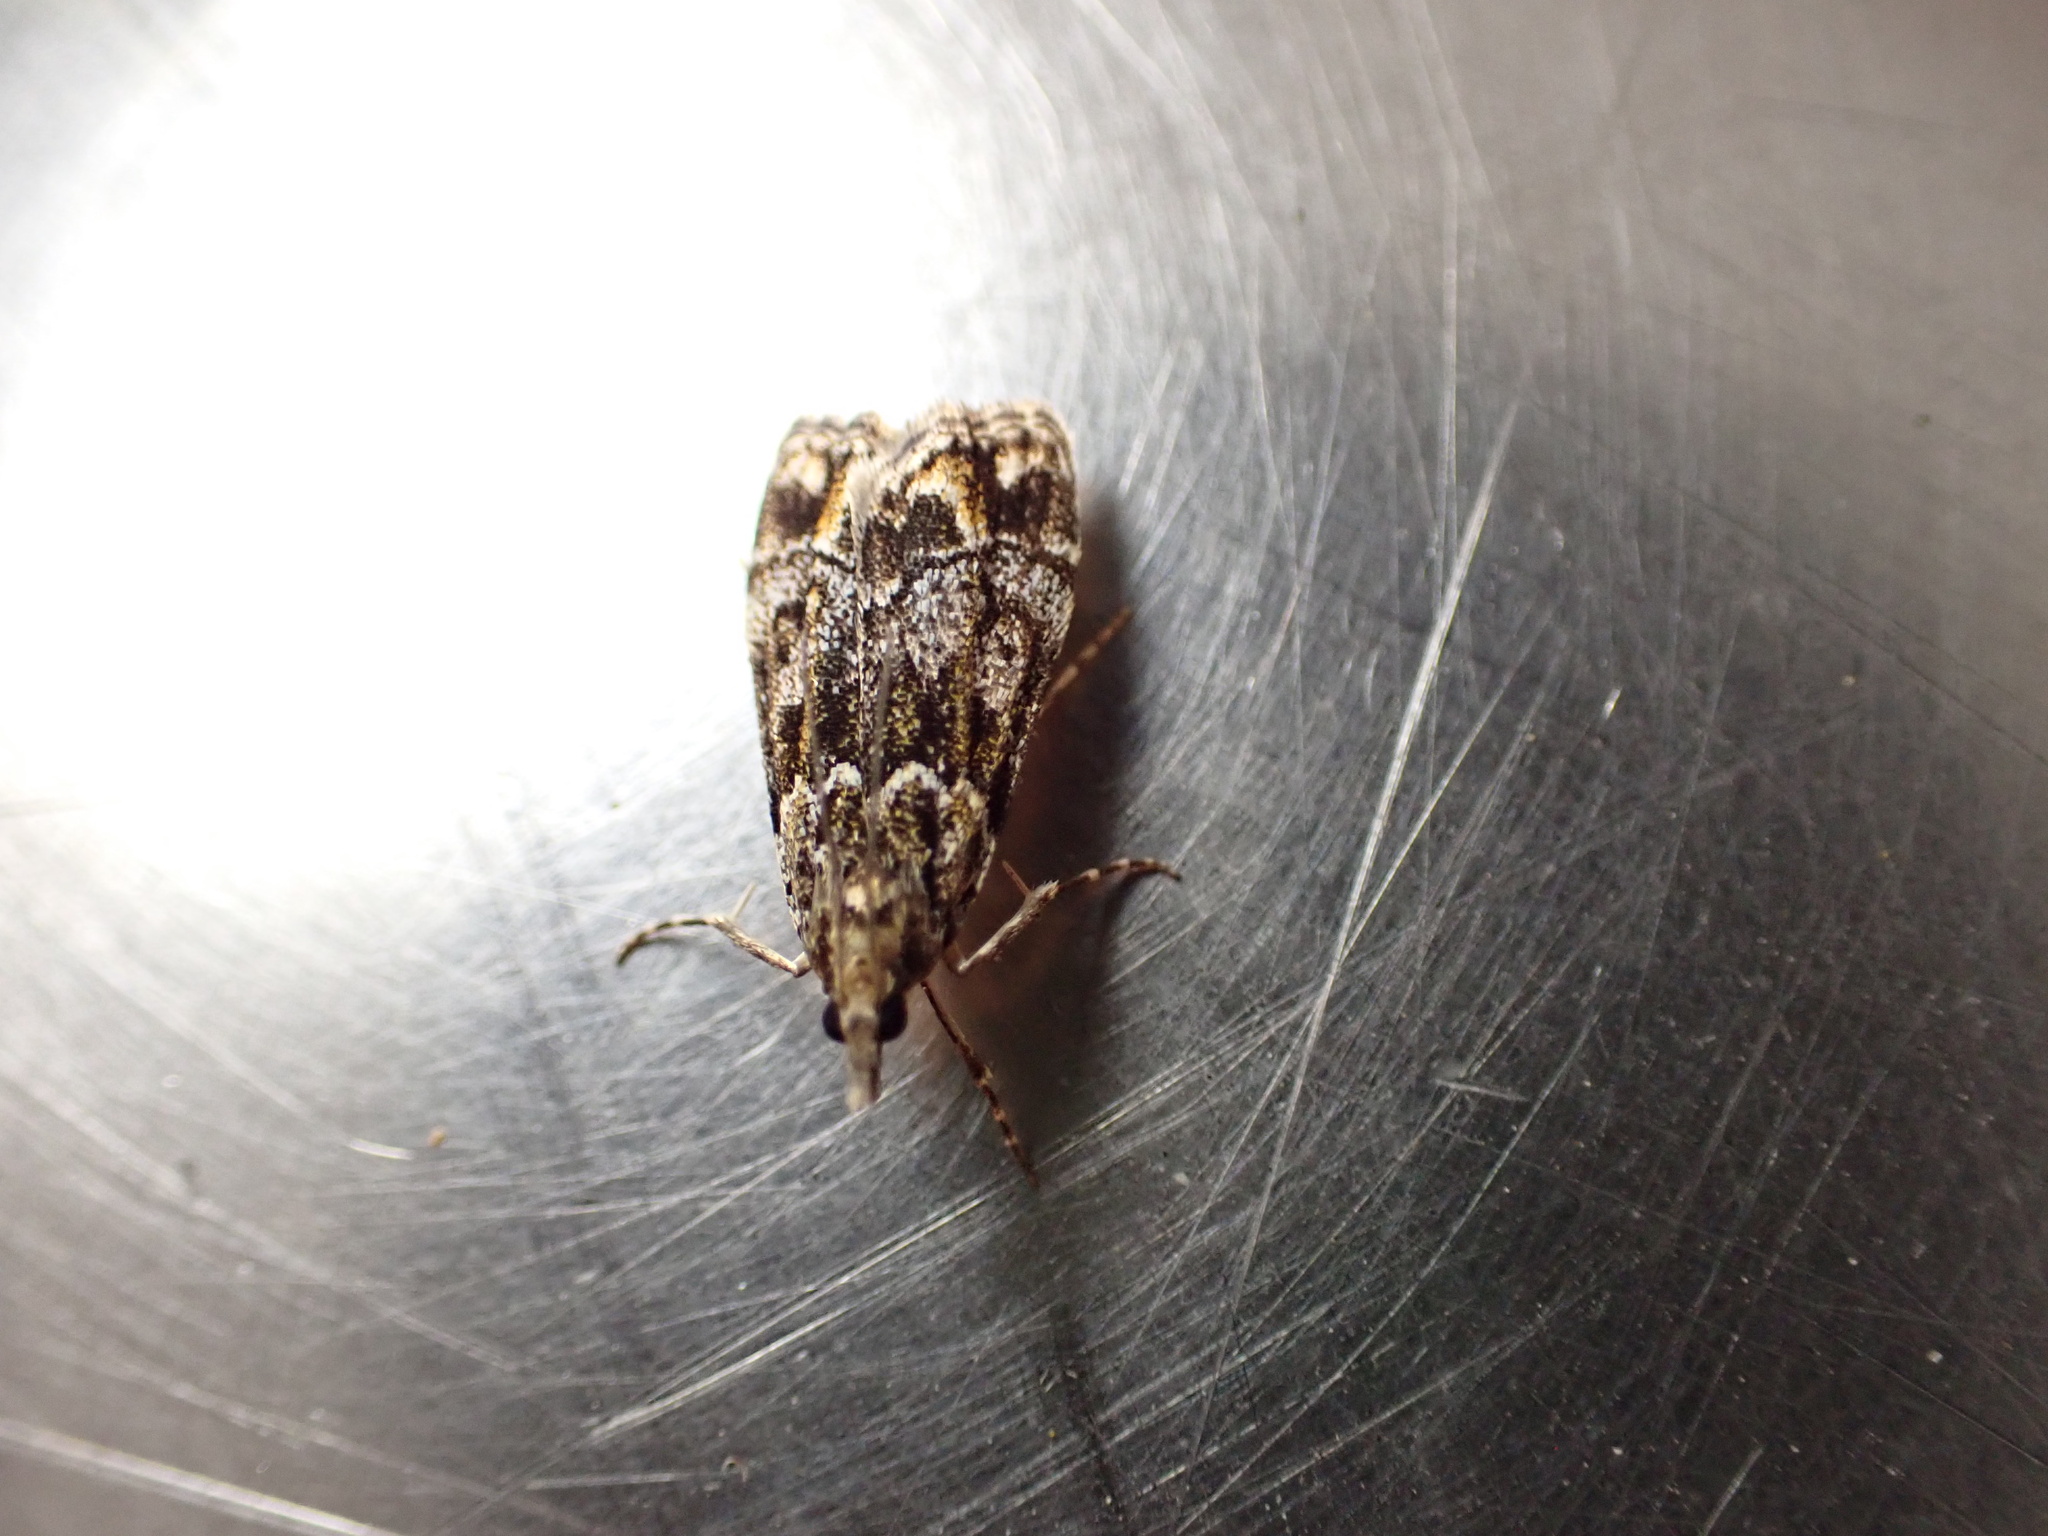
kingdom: Animalia
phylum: Arthropoda
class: Insecta
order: Lepidoptera
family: Crambidae
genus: Eudonia
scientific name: Eudonia minualis
